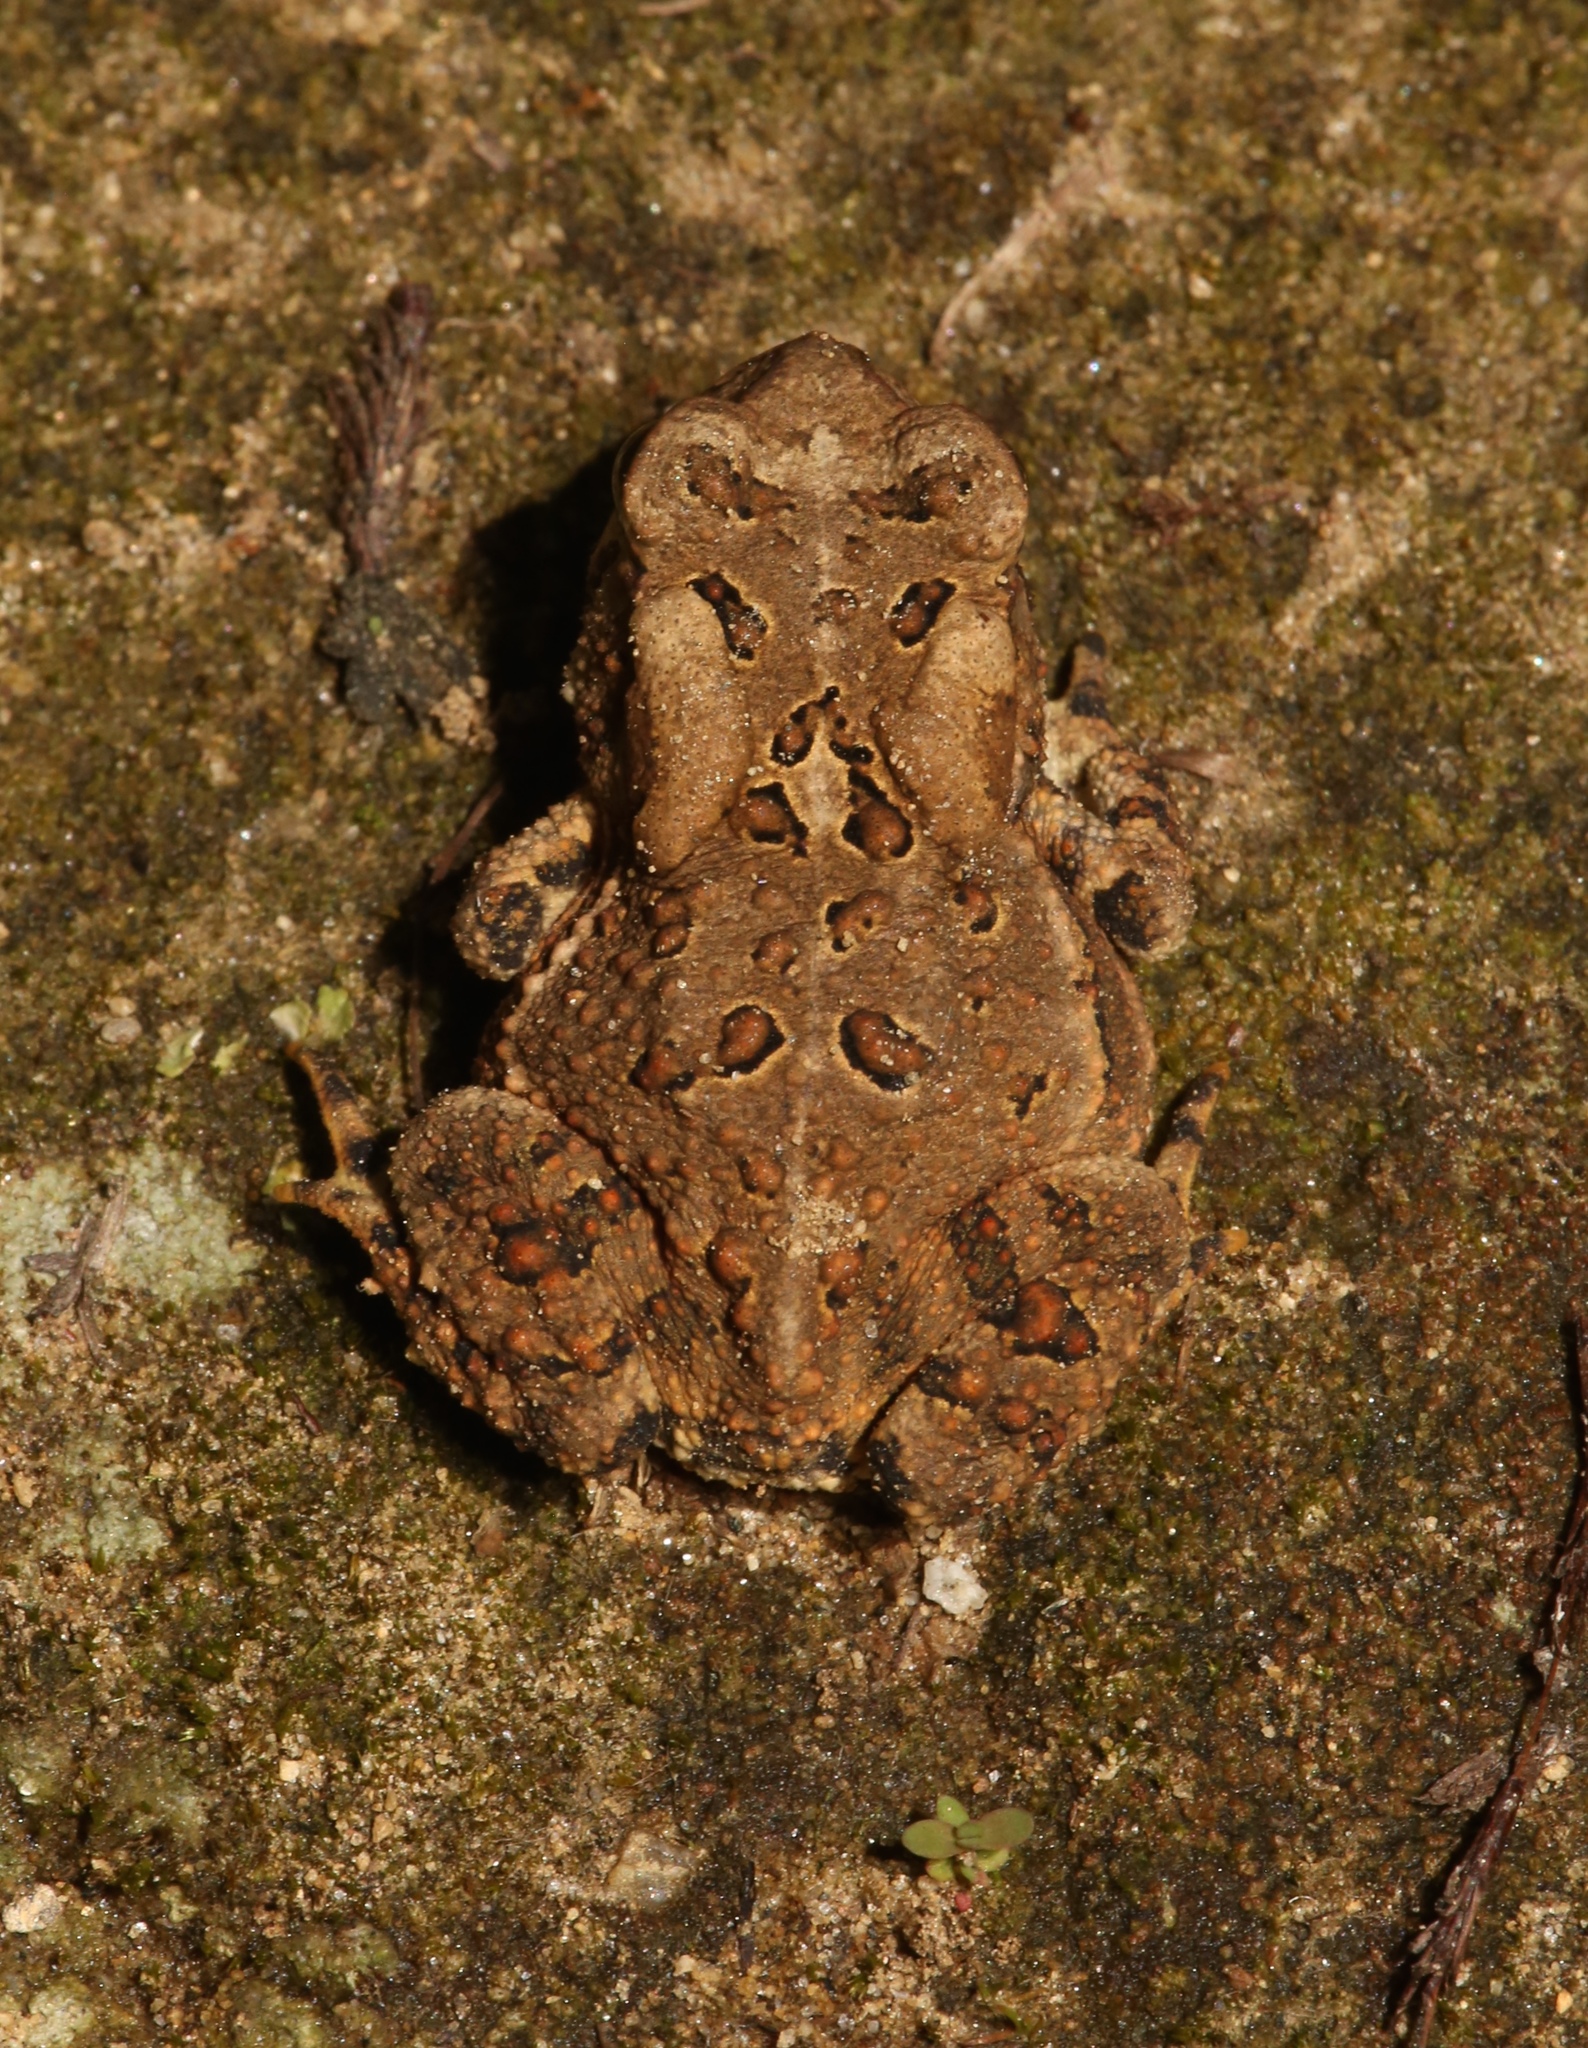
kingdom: Animalia
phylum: Chordata
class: Amphibia
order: Anura
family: Bufonidae
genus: Anaxyrus
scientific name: Anaxyrus americanus
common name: American toad
